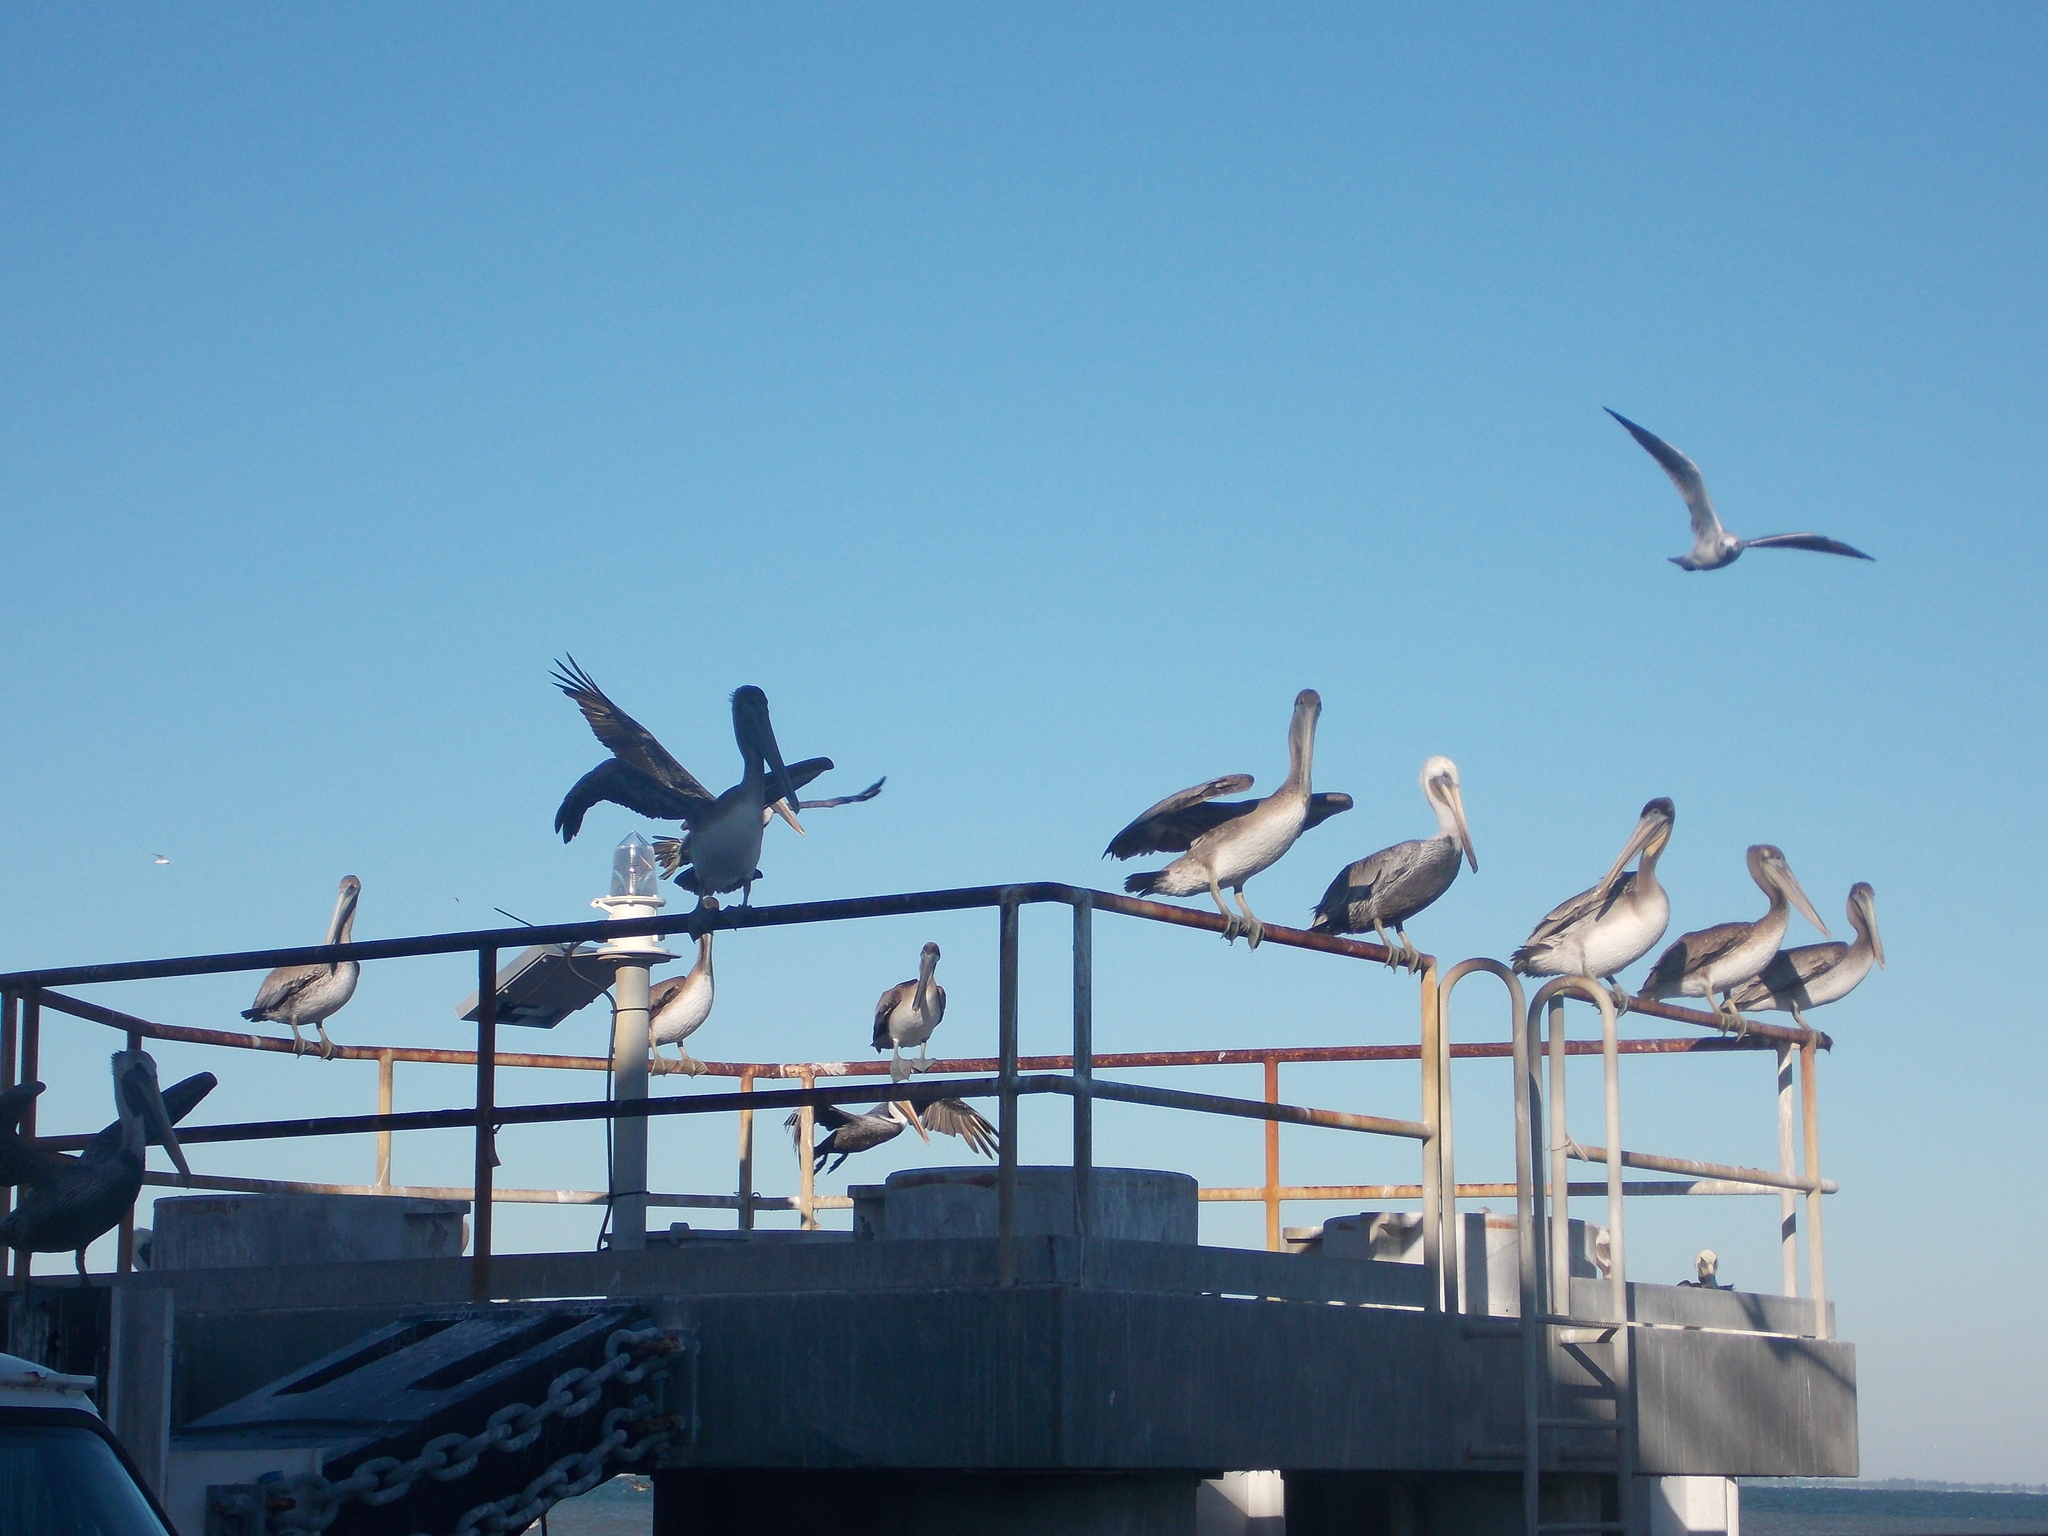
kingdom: Animalia
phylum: Chordata
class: Aves
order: Pelecaniformes
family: Pelecanidae
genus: Pelecanus
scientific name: Pelecanus occidentalis
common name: Brown pelican
